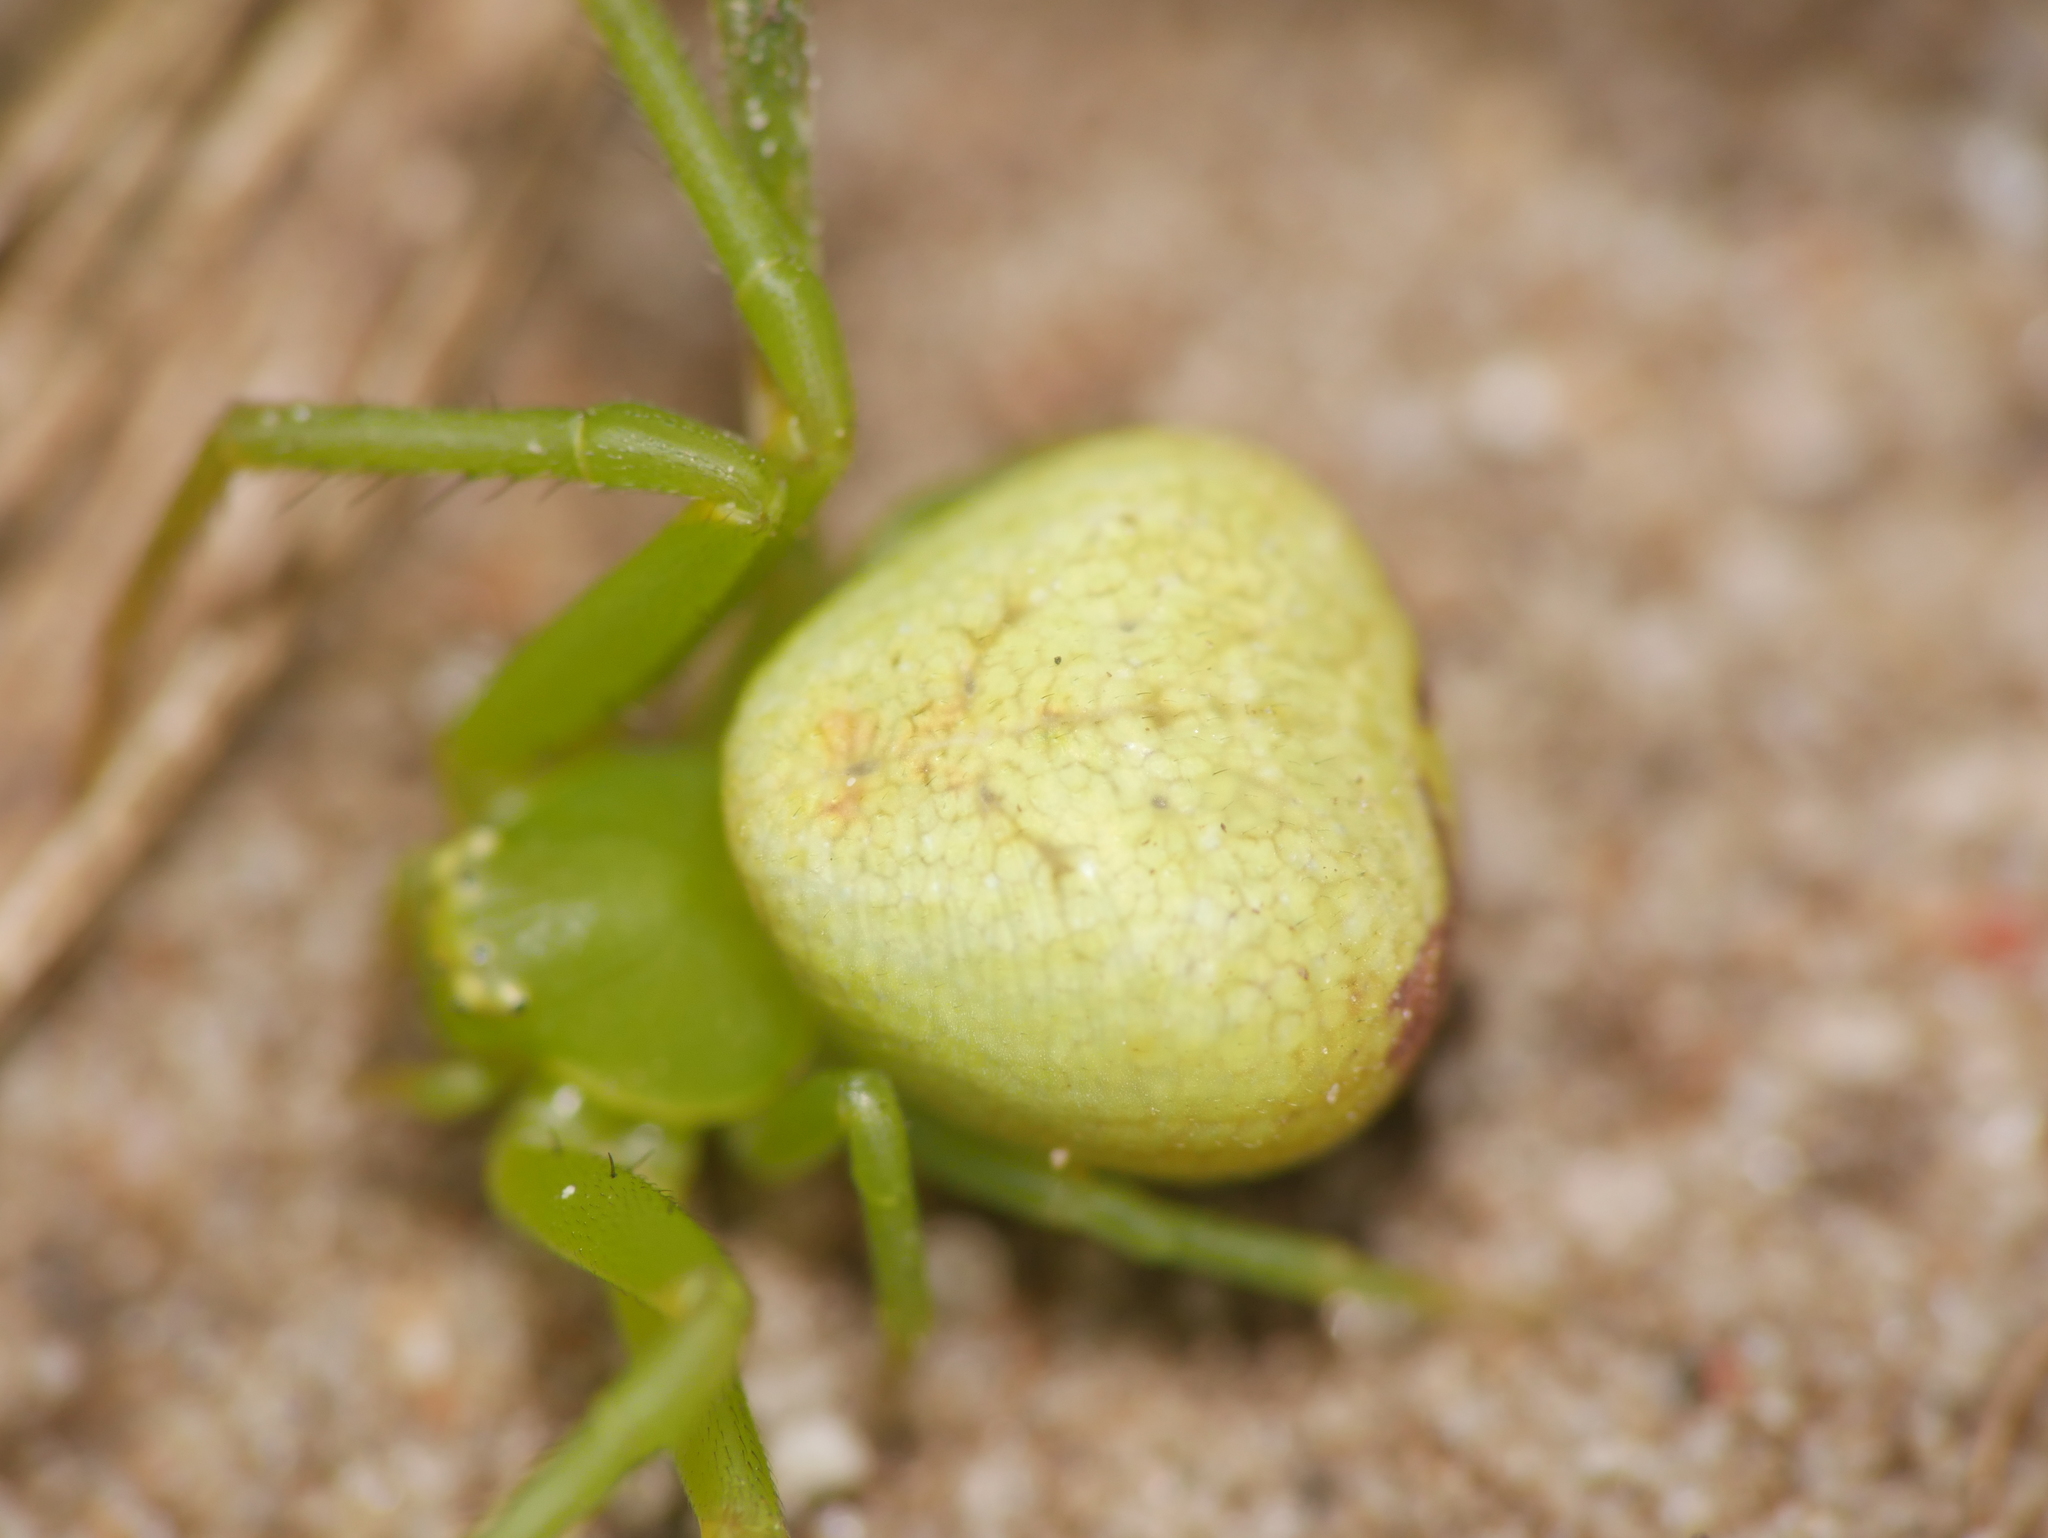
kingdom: Animalia
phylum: Arthropoda
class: Arachnida
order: Araneae
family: Thomisidae
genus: Ebrechtella
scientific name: Ebrechtella tricuspidata
